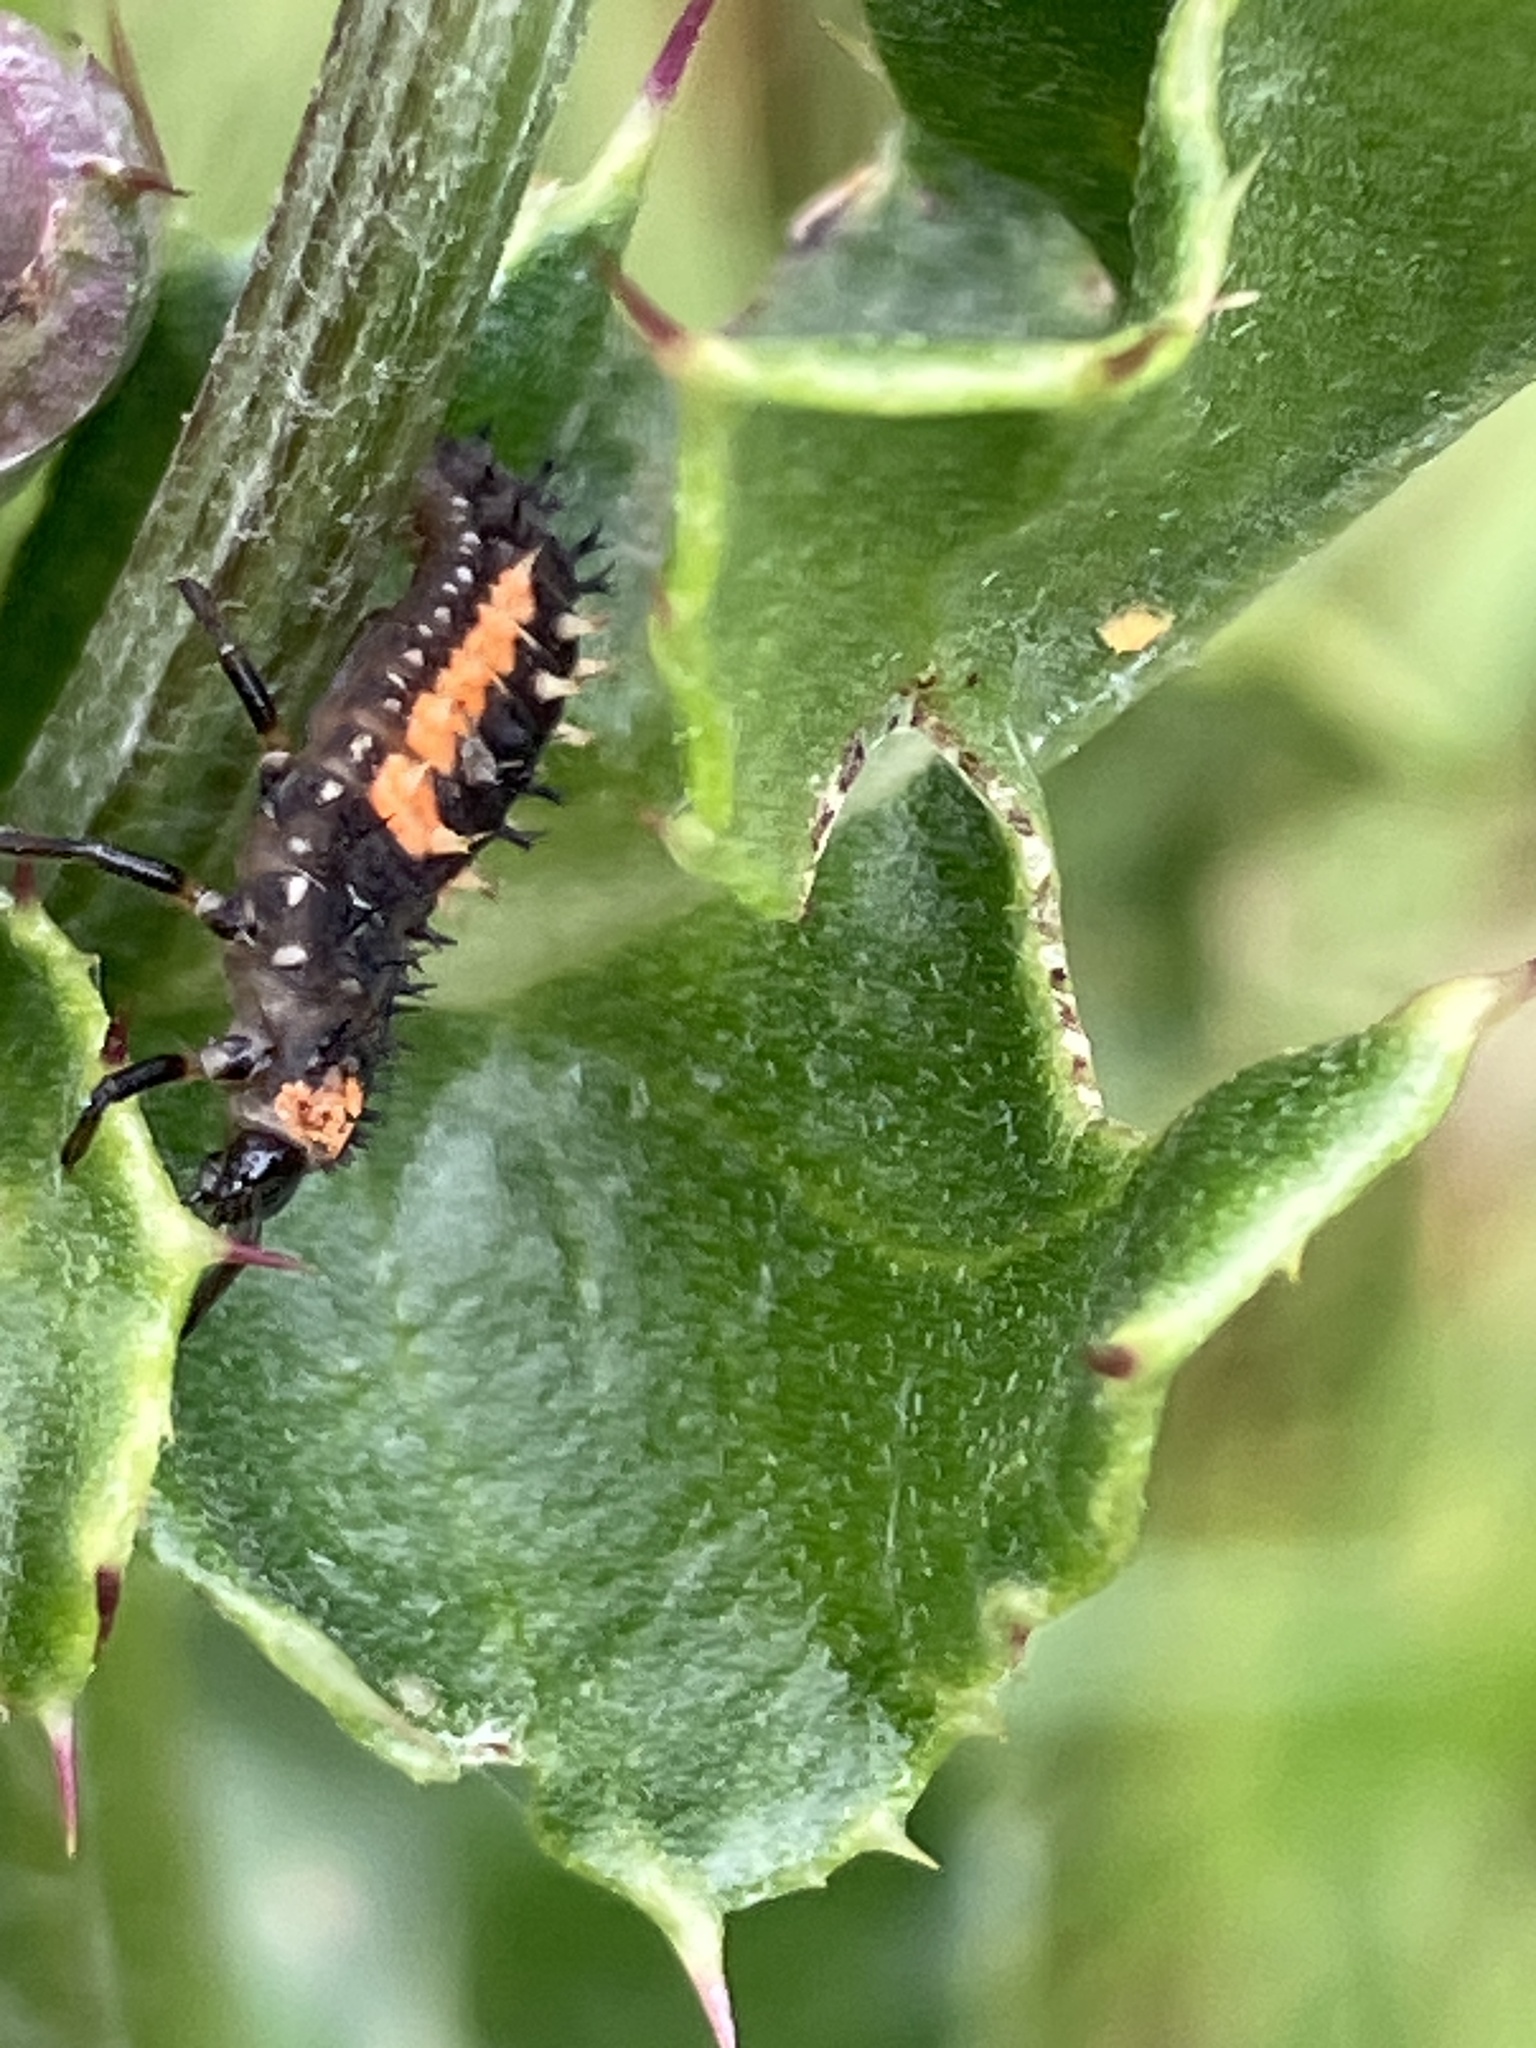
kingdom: Animalia
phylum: Arthropoda
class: Insecta
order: Coleoptera
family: Coccinellidae
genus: Harmonia
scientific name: Harmonia axyridis
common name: Harlequin ladybird
